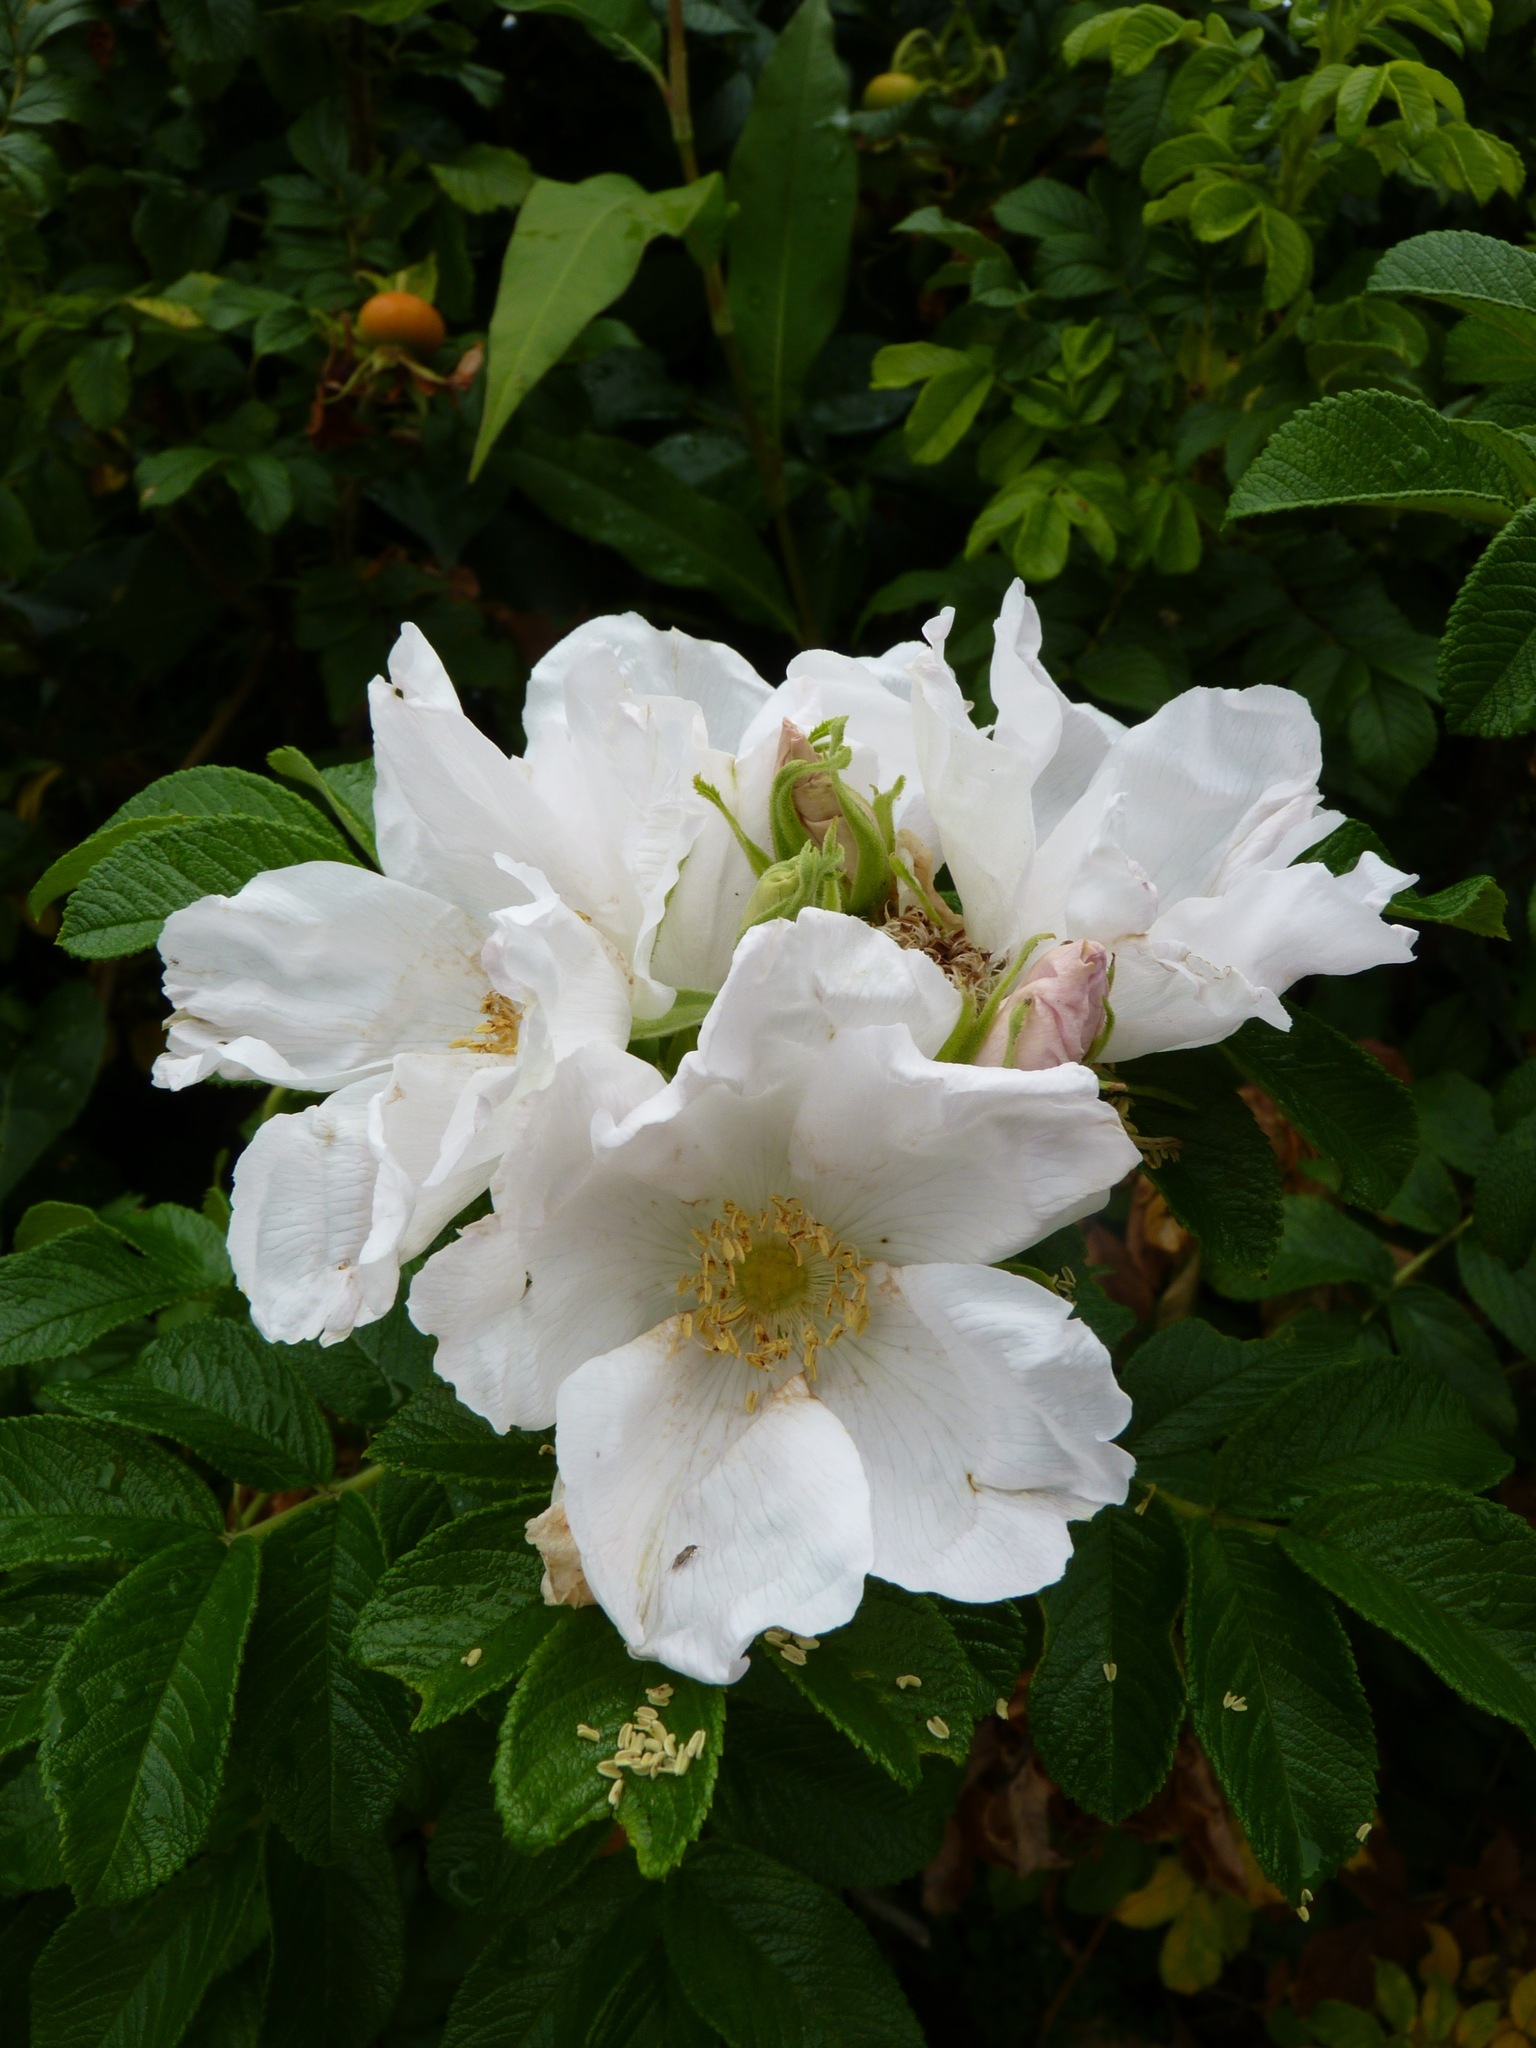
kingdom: Plantae
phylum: Tracheophyta
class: Magnoliopsida
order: Rosales
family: Rosaceae
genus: Rosa
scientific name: Rosa rugosa
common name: Japanese rose
